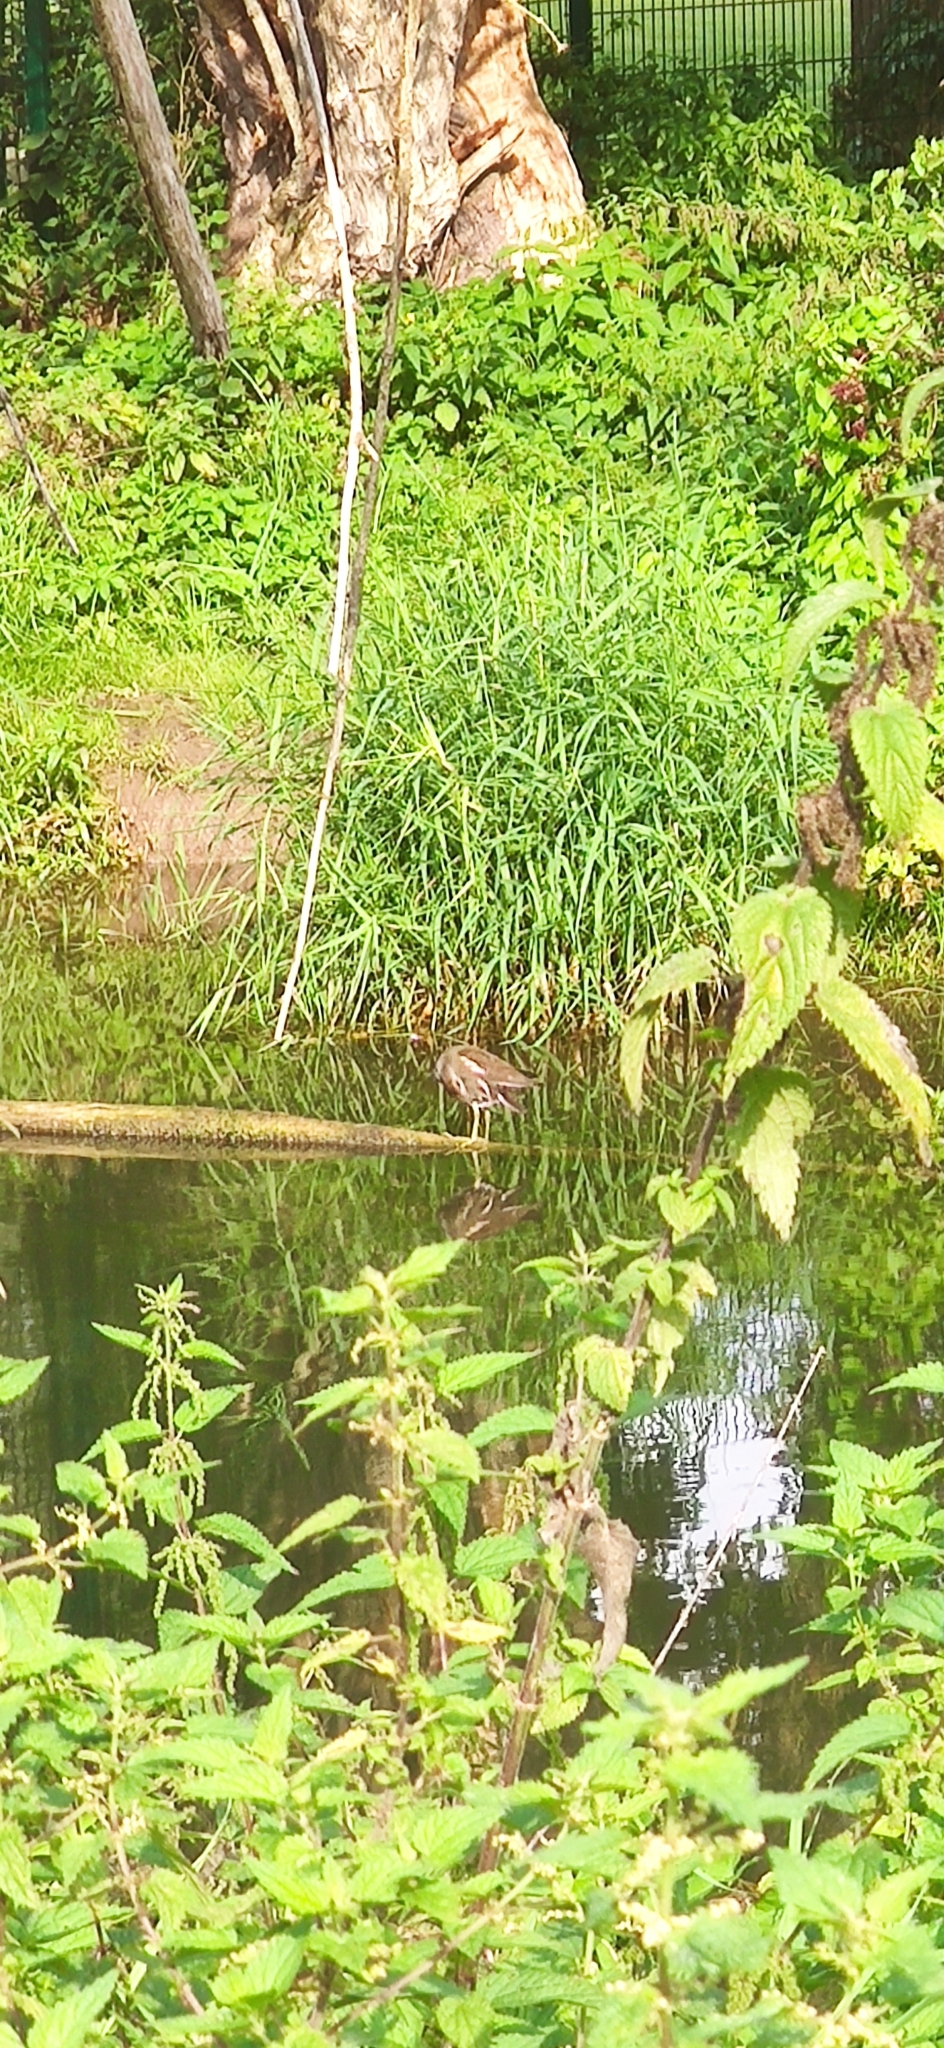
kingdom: Animalia
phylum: Chordata
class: Aves
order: Gruiformes
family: Rallidae
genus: Gallinula
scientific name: Gallinula chloropus
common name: Common moorhen
